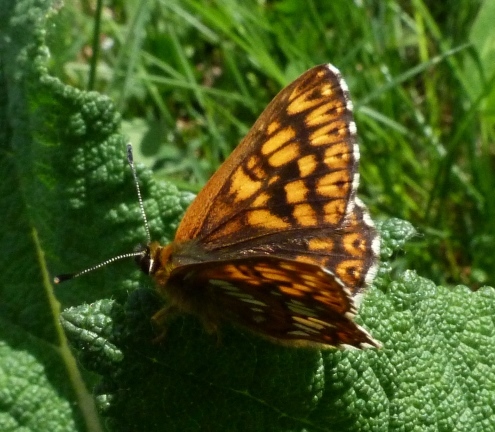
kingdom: Animalia
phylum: Arthropoda
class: Insecta
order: Lepidoptera
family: Riodinidae
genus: Hamearis
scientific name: Hamearis lucina
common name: Duke of burgundy fritillary
